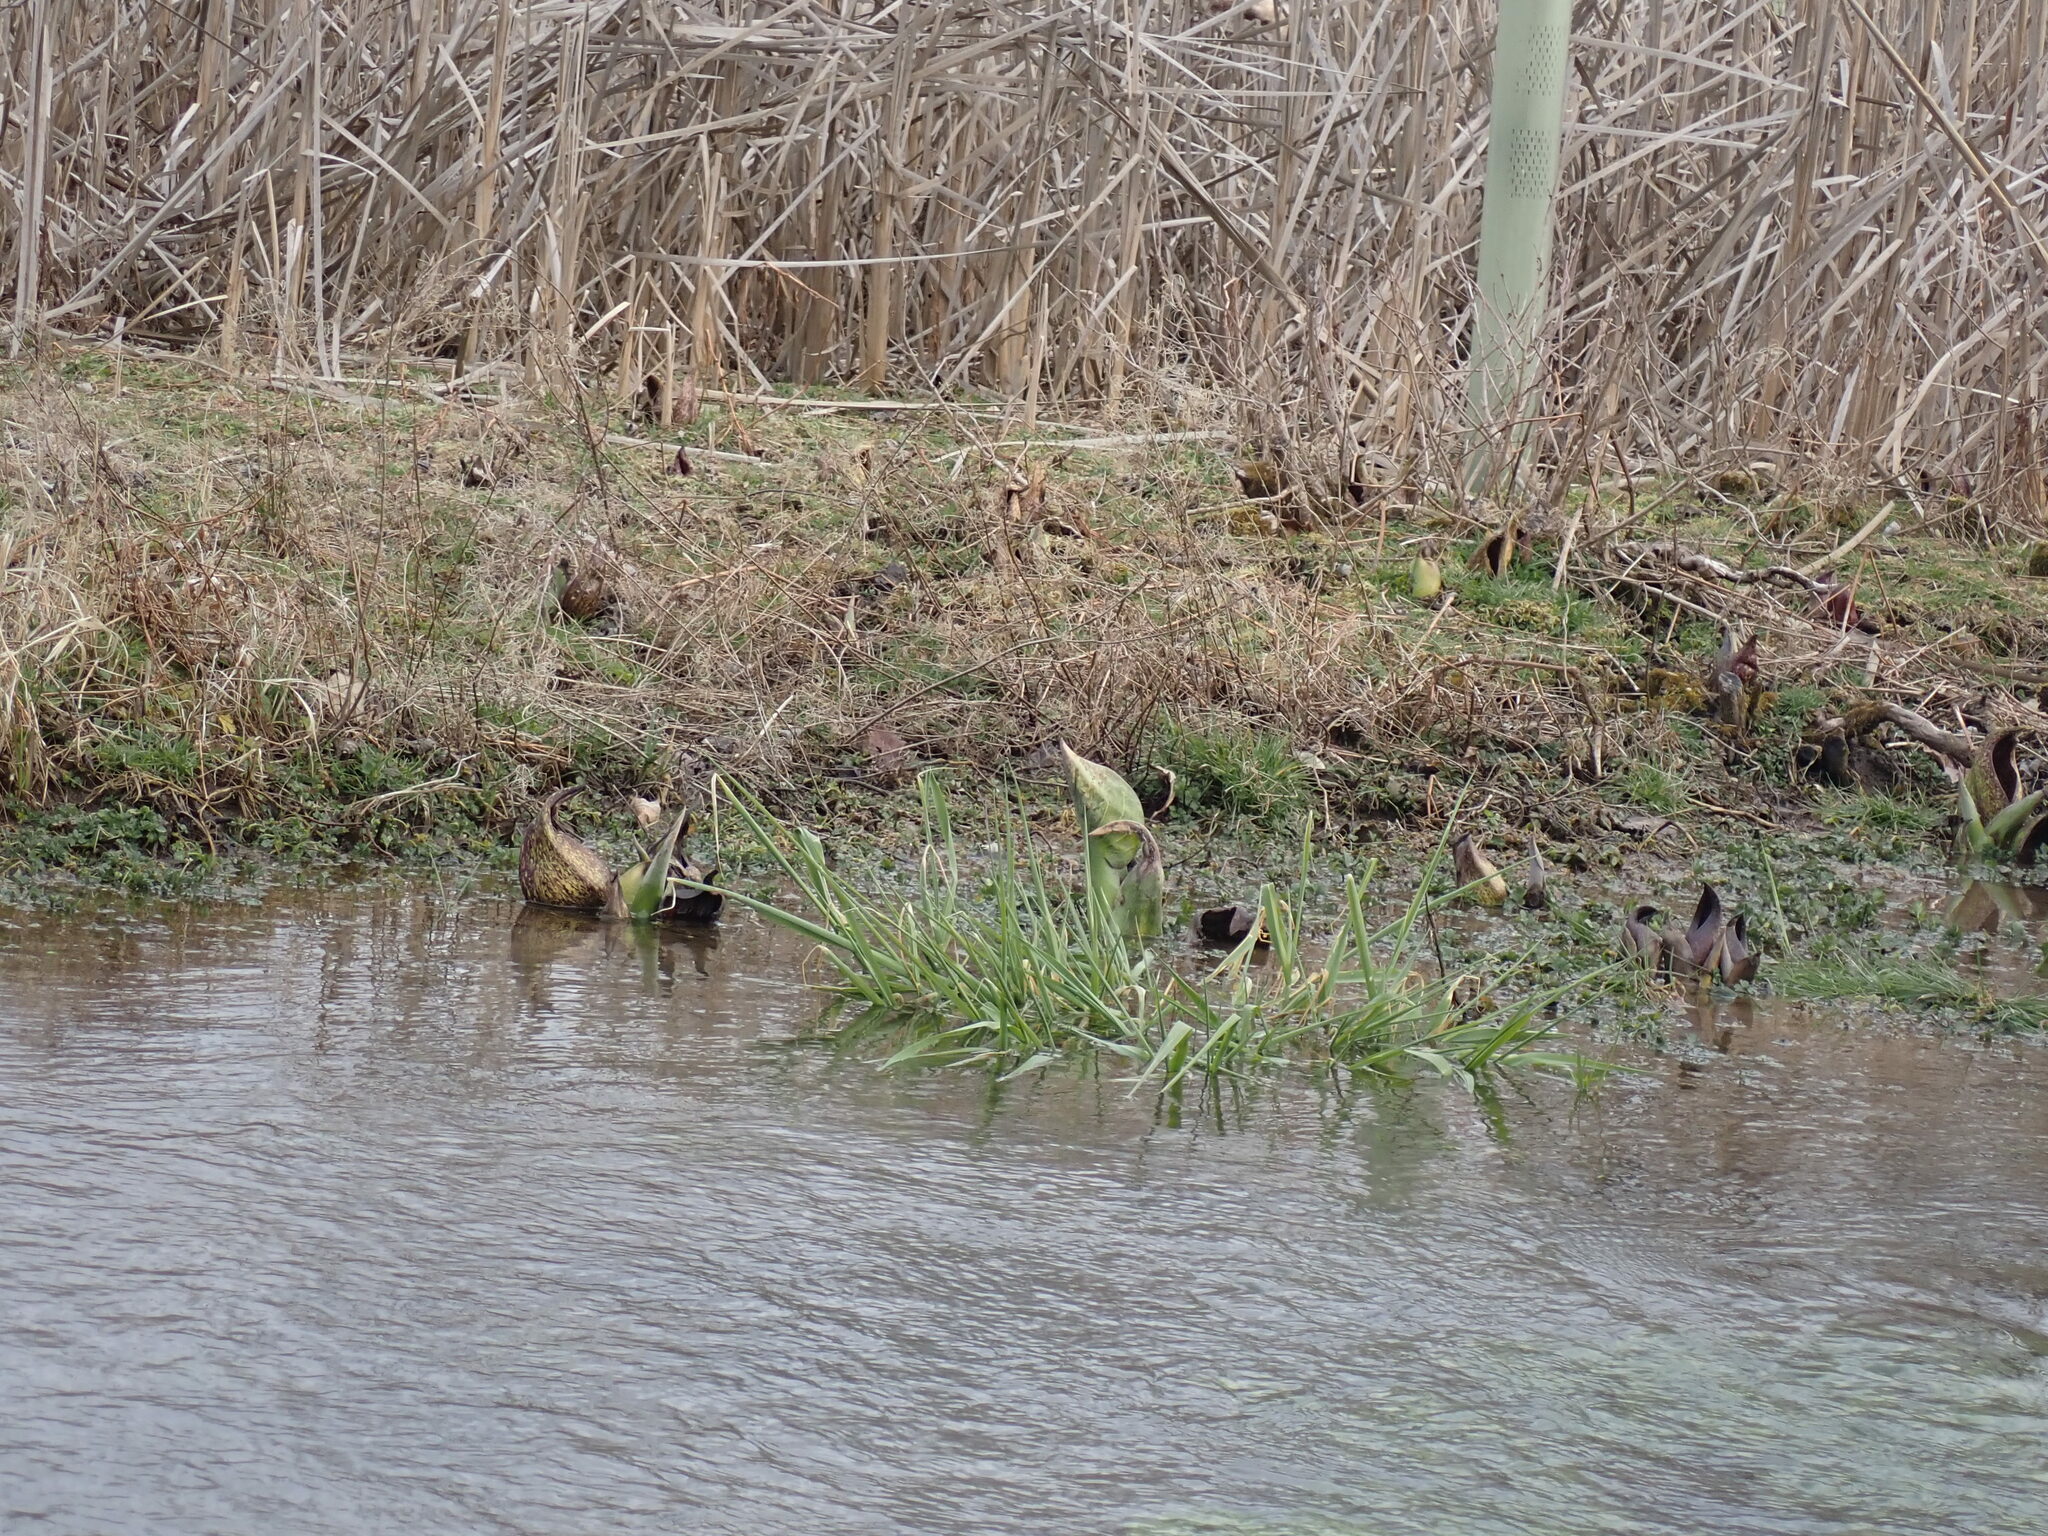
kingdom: Plantae
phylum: Tracheophyta
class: Liliopsida
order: Alismatales
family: Araceae
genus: Symplocarpus
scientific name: Symplocarpus foetidus
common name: Eastern skunk cabbage
